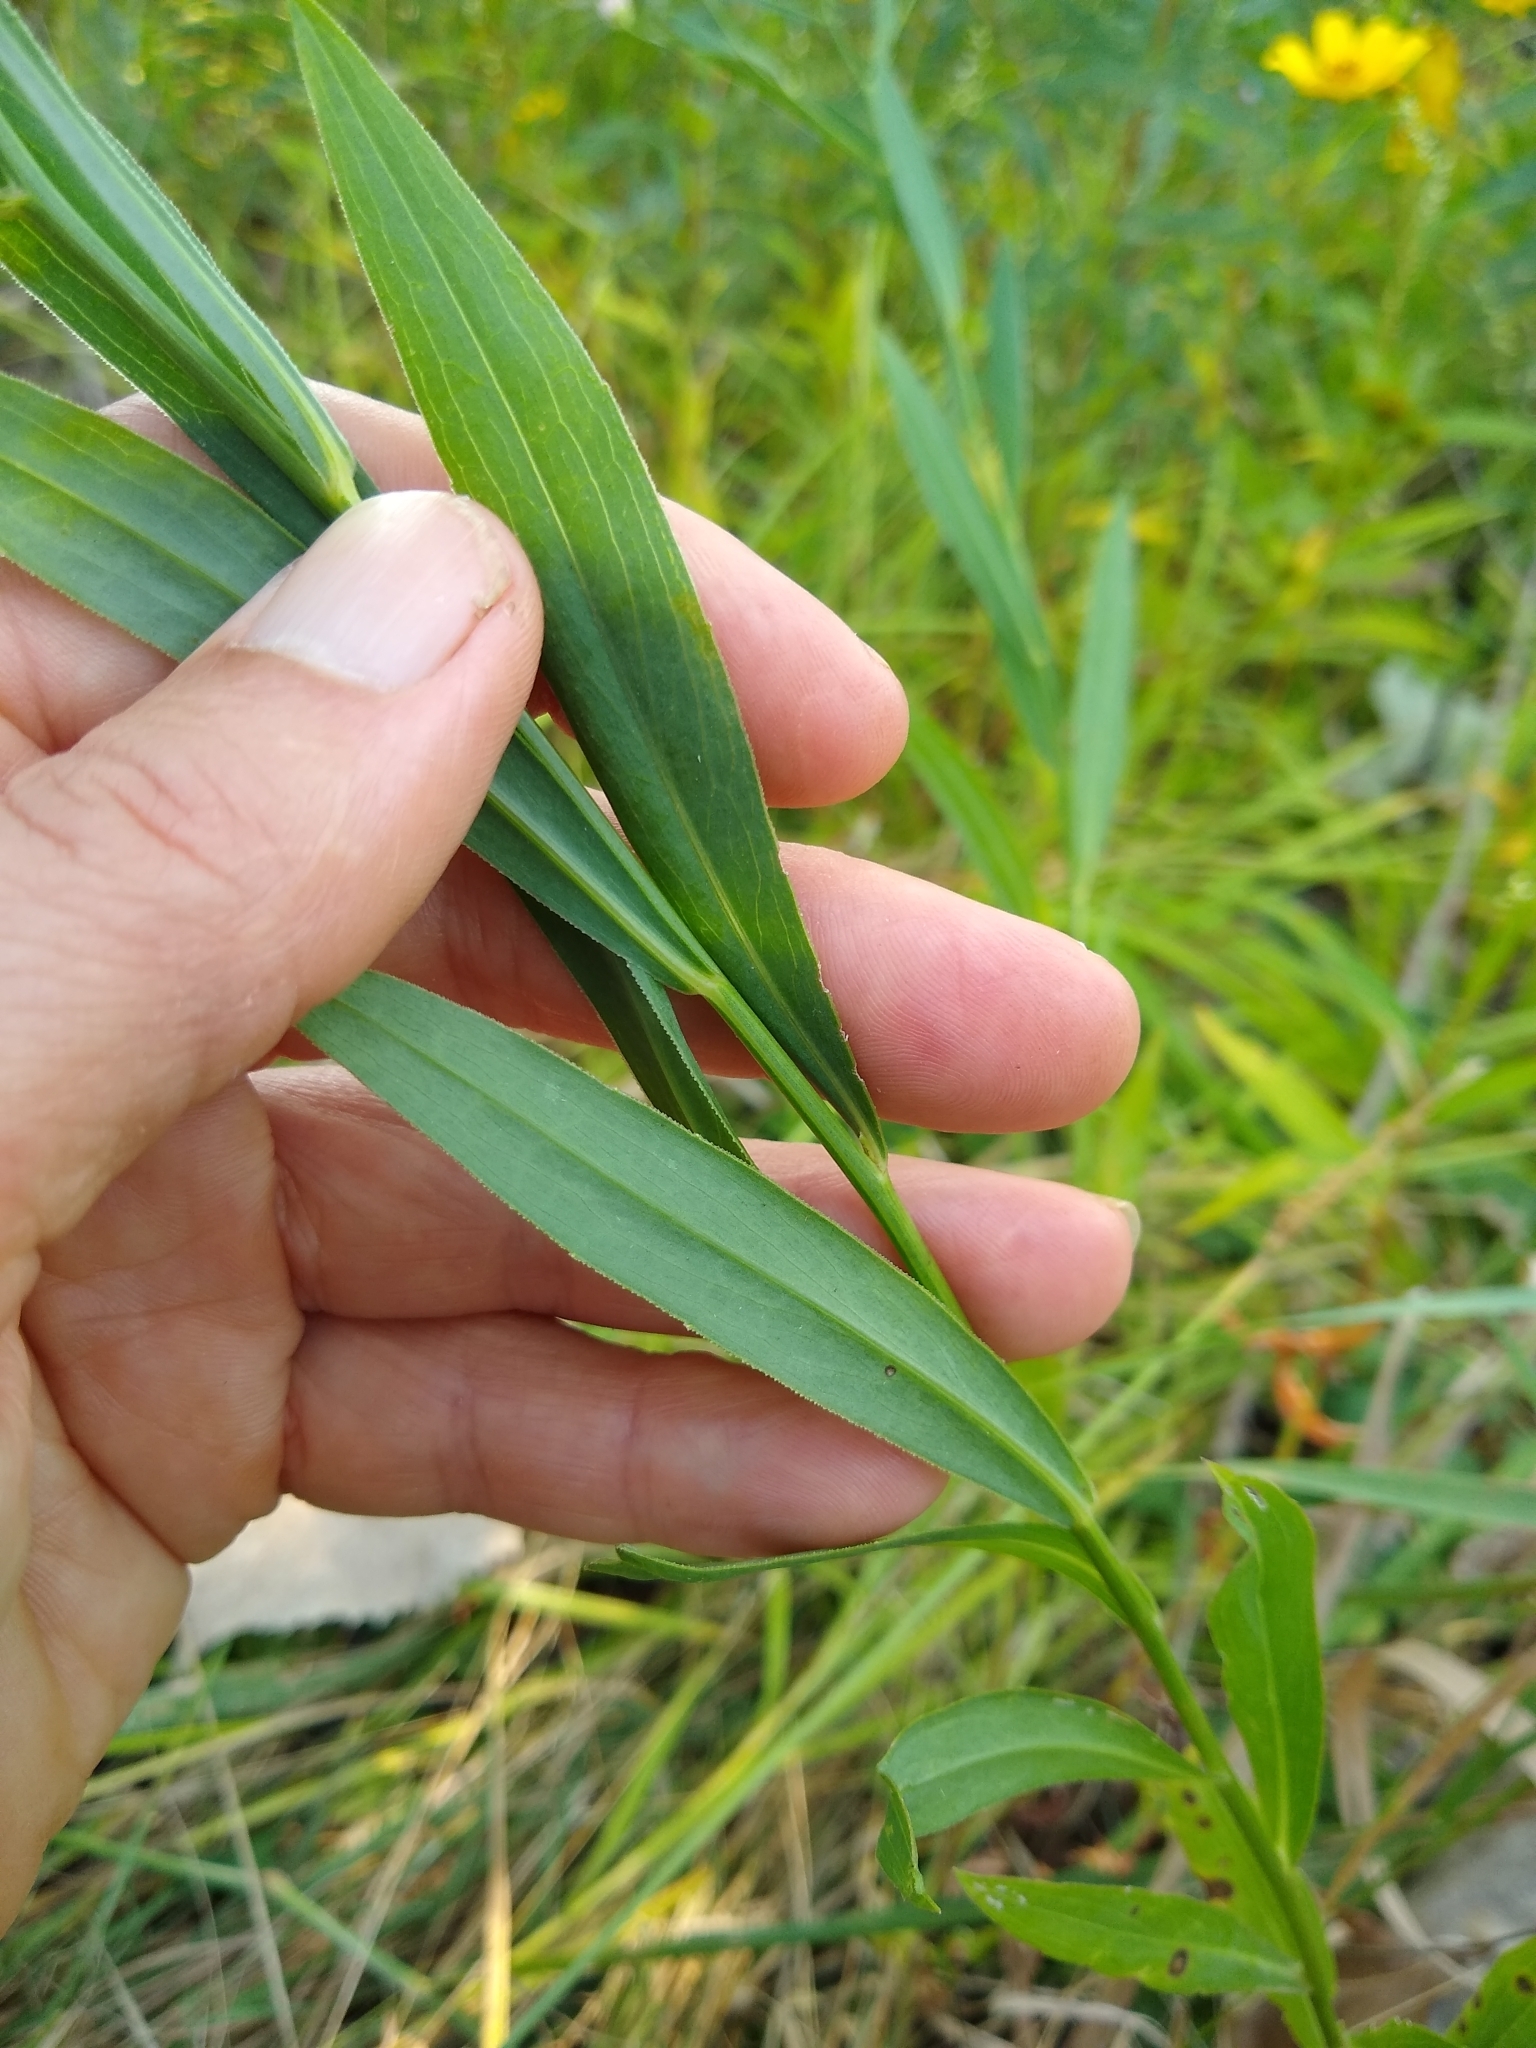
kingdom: Plantae
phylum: Tracheophyta
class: Magnoliopsida
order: Asterales
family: Asteraceae
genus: Boltonia
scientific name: Boltonia asteroides
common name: False chamomile
